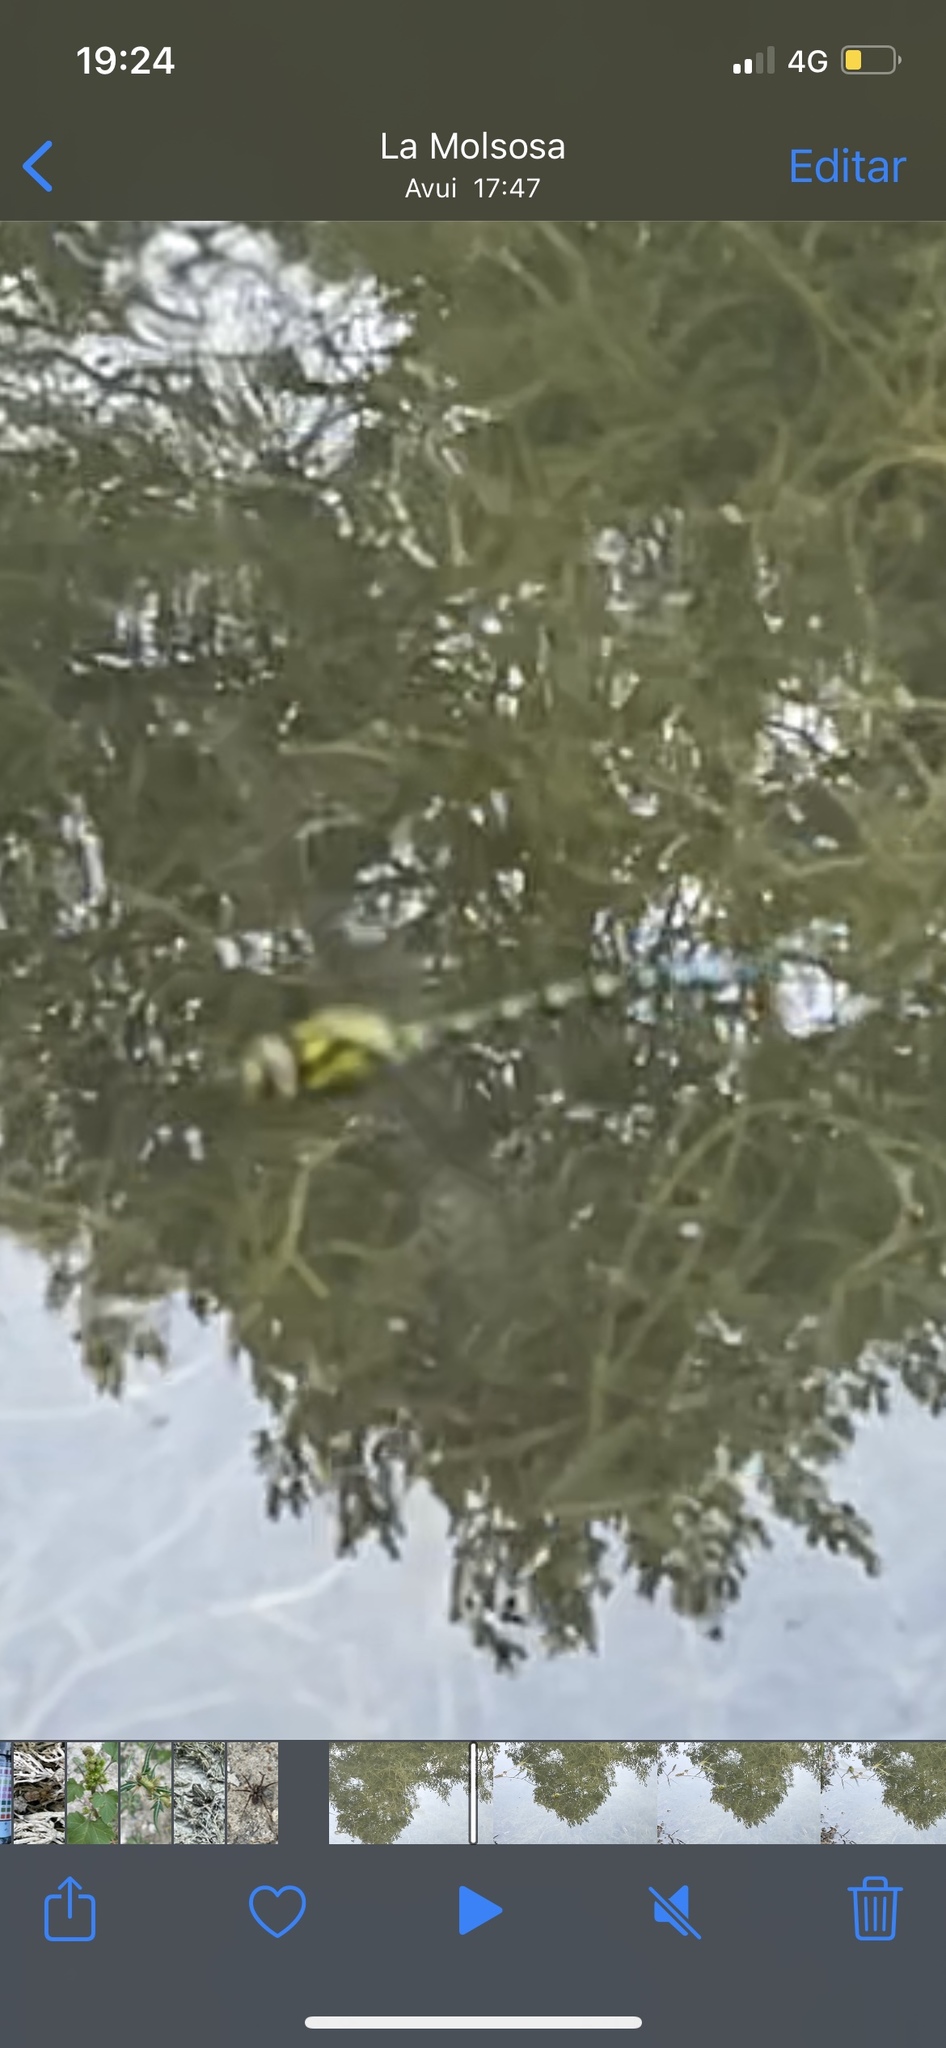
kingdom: Animalia
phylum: Arthropoda
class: Insecta
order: Odonata
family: Aeshnidae
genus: Aeshna
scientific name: Aeshna cyanea
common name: Southern hawker
